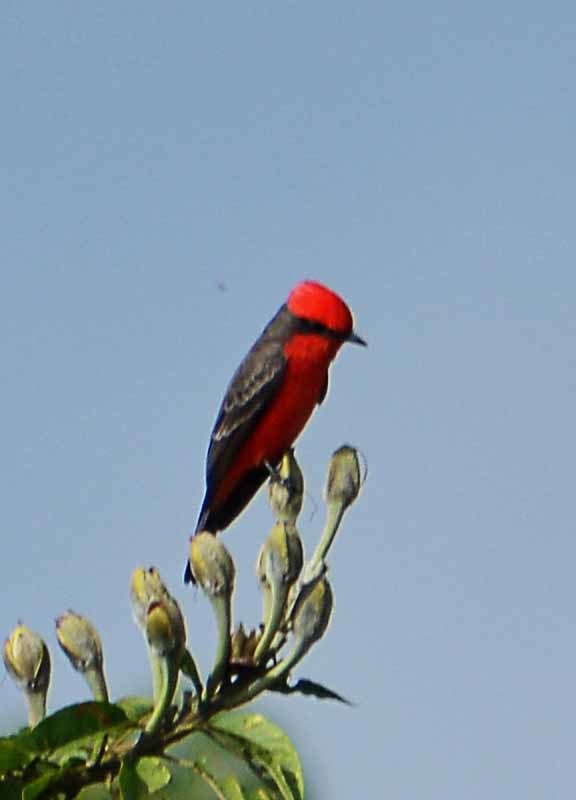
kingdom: Animalia
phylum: Chordata
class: Aves
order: Passeriformes
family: Tyrannidae
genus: Pyrocephalus
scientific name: Pyrocephalus rubinus
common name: Vermilion flycatcher
